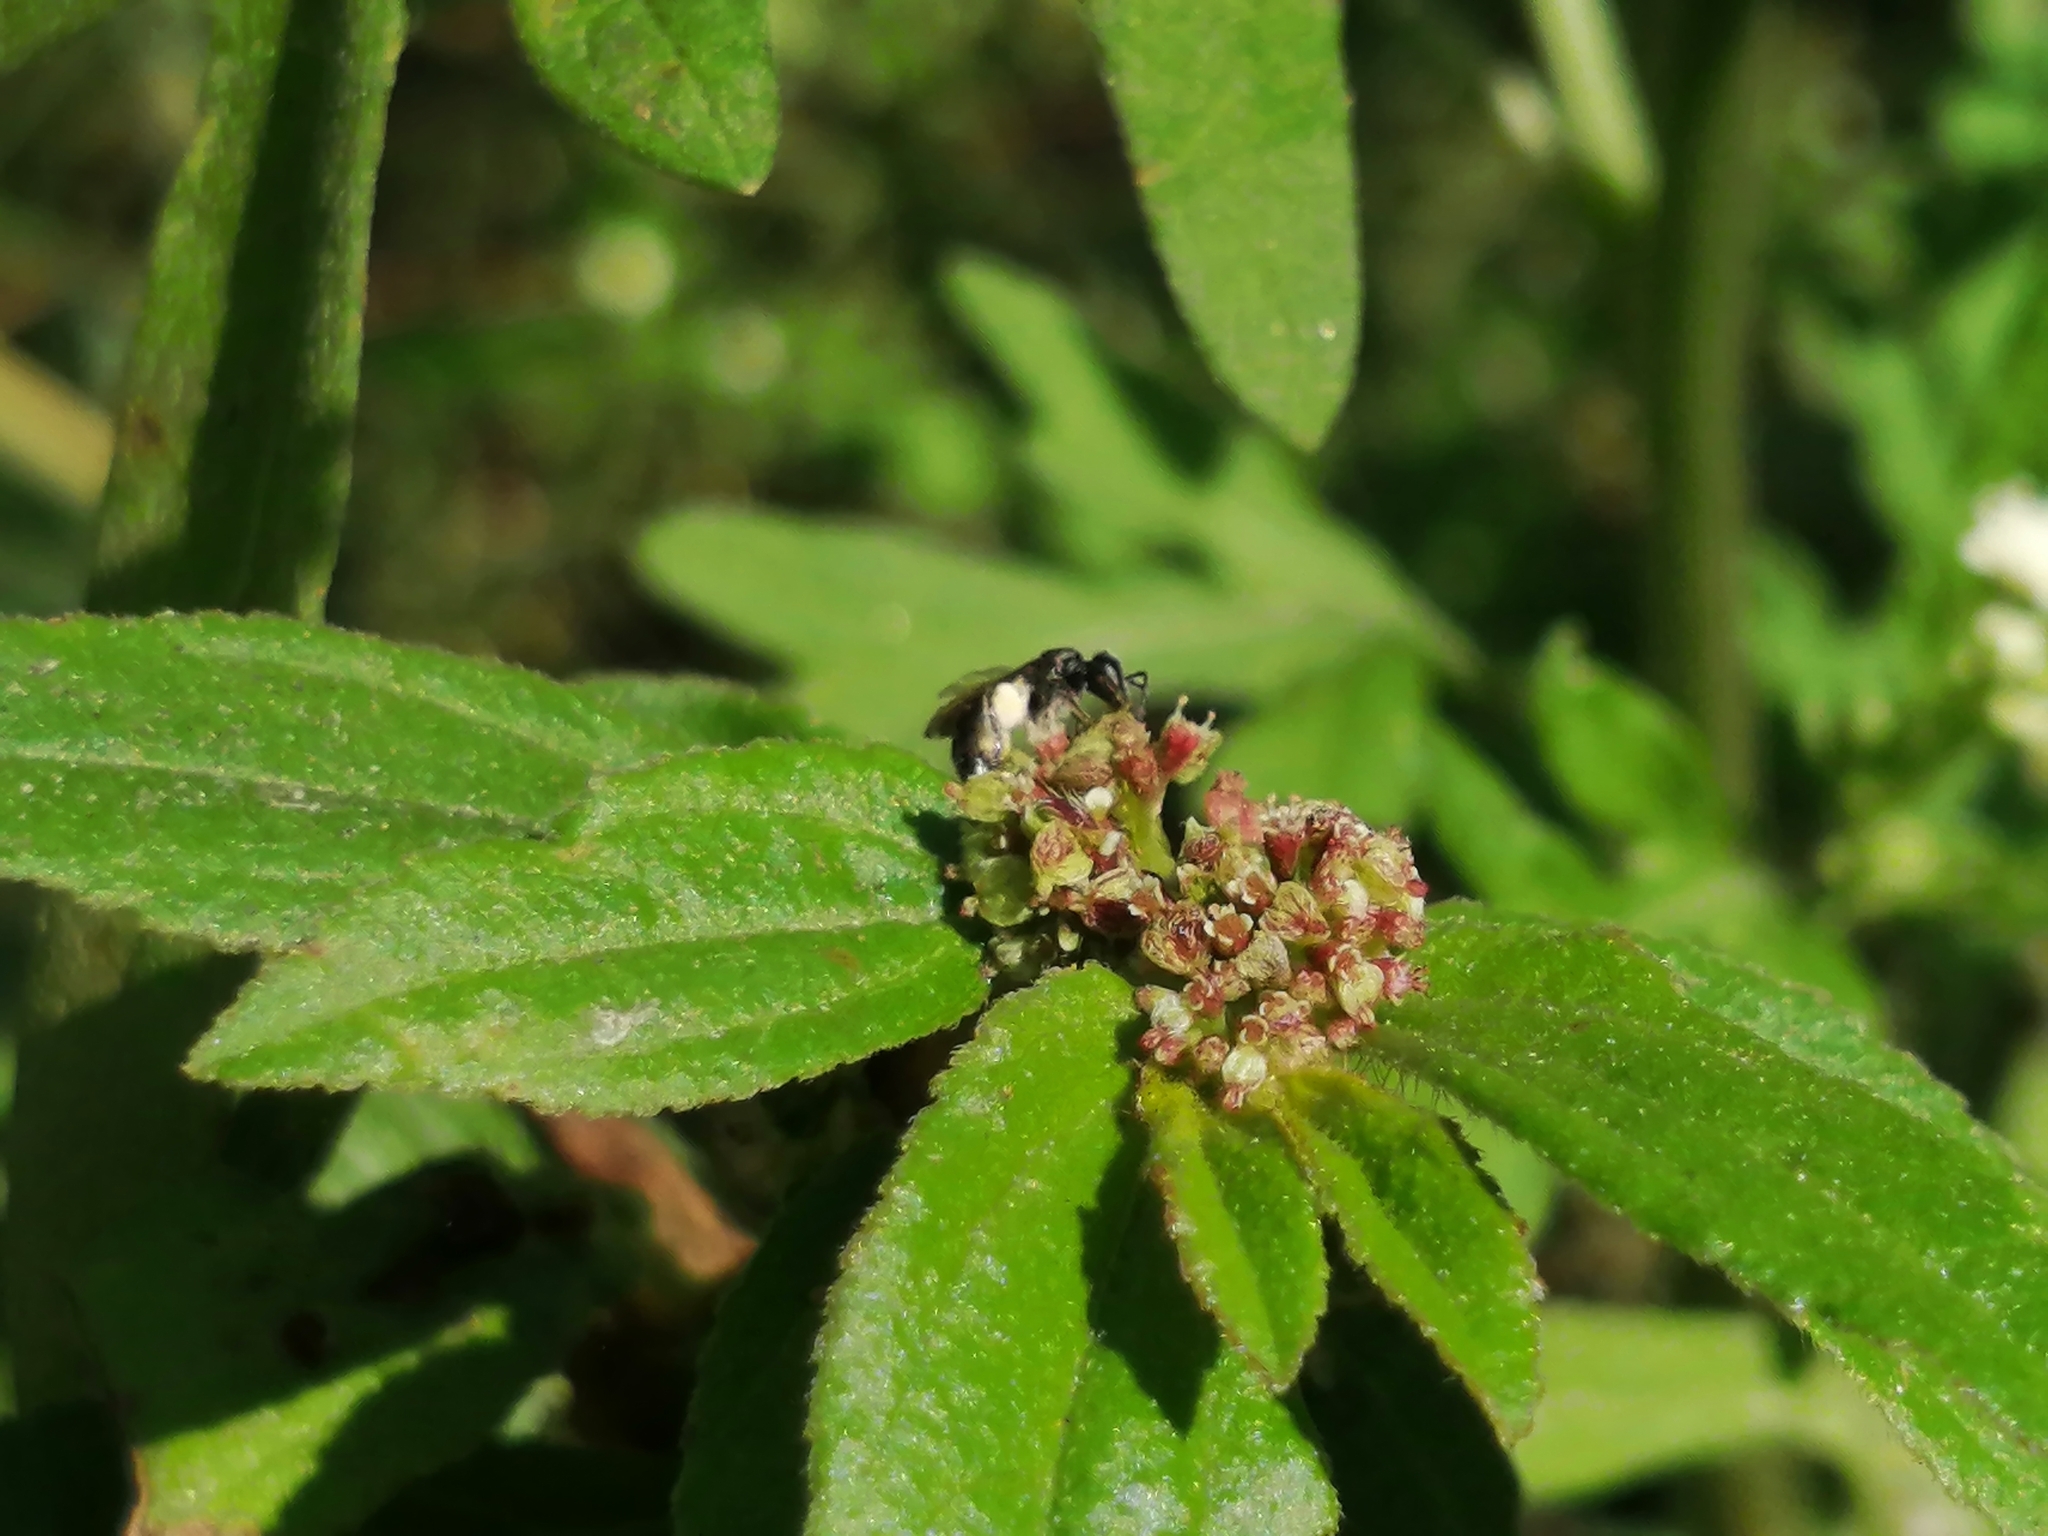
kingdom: Plantae
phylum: Tracheophyta
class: Magnoliopsida
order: Malpighiales
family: Euphorbiaceae
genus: Euphorbia
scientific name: Euphorbia hirta
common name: Pillpod sandmat
